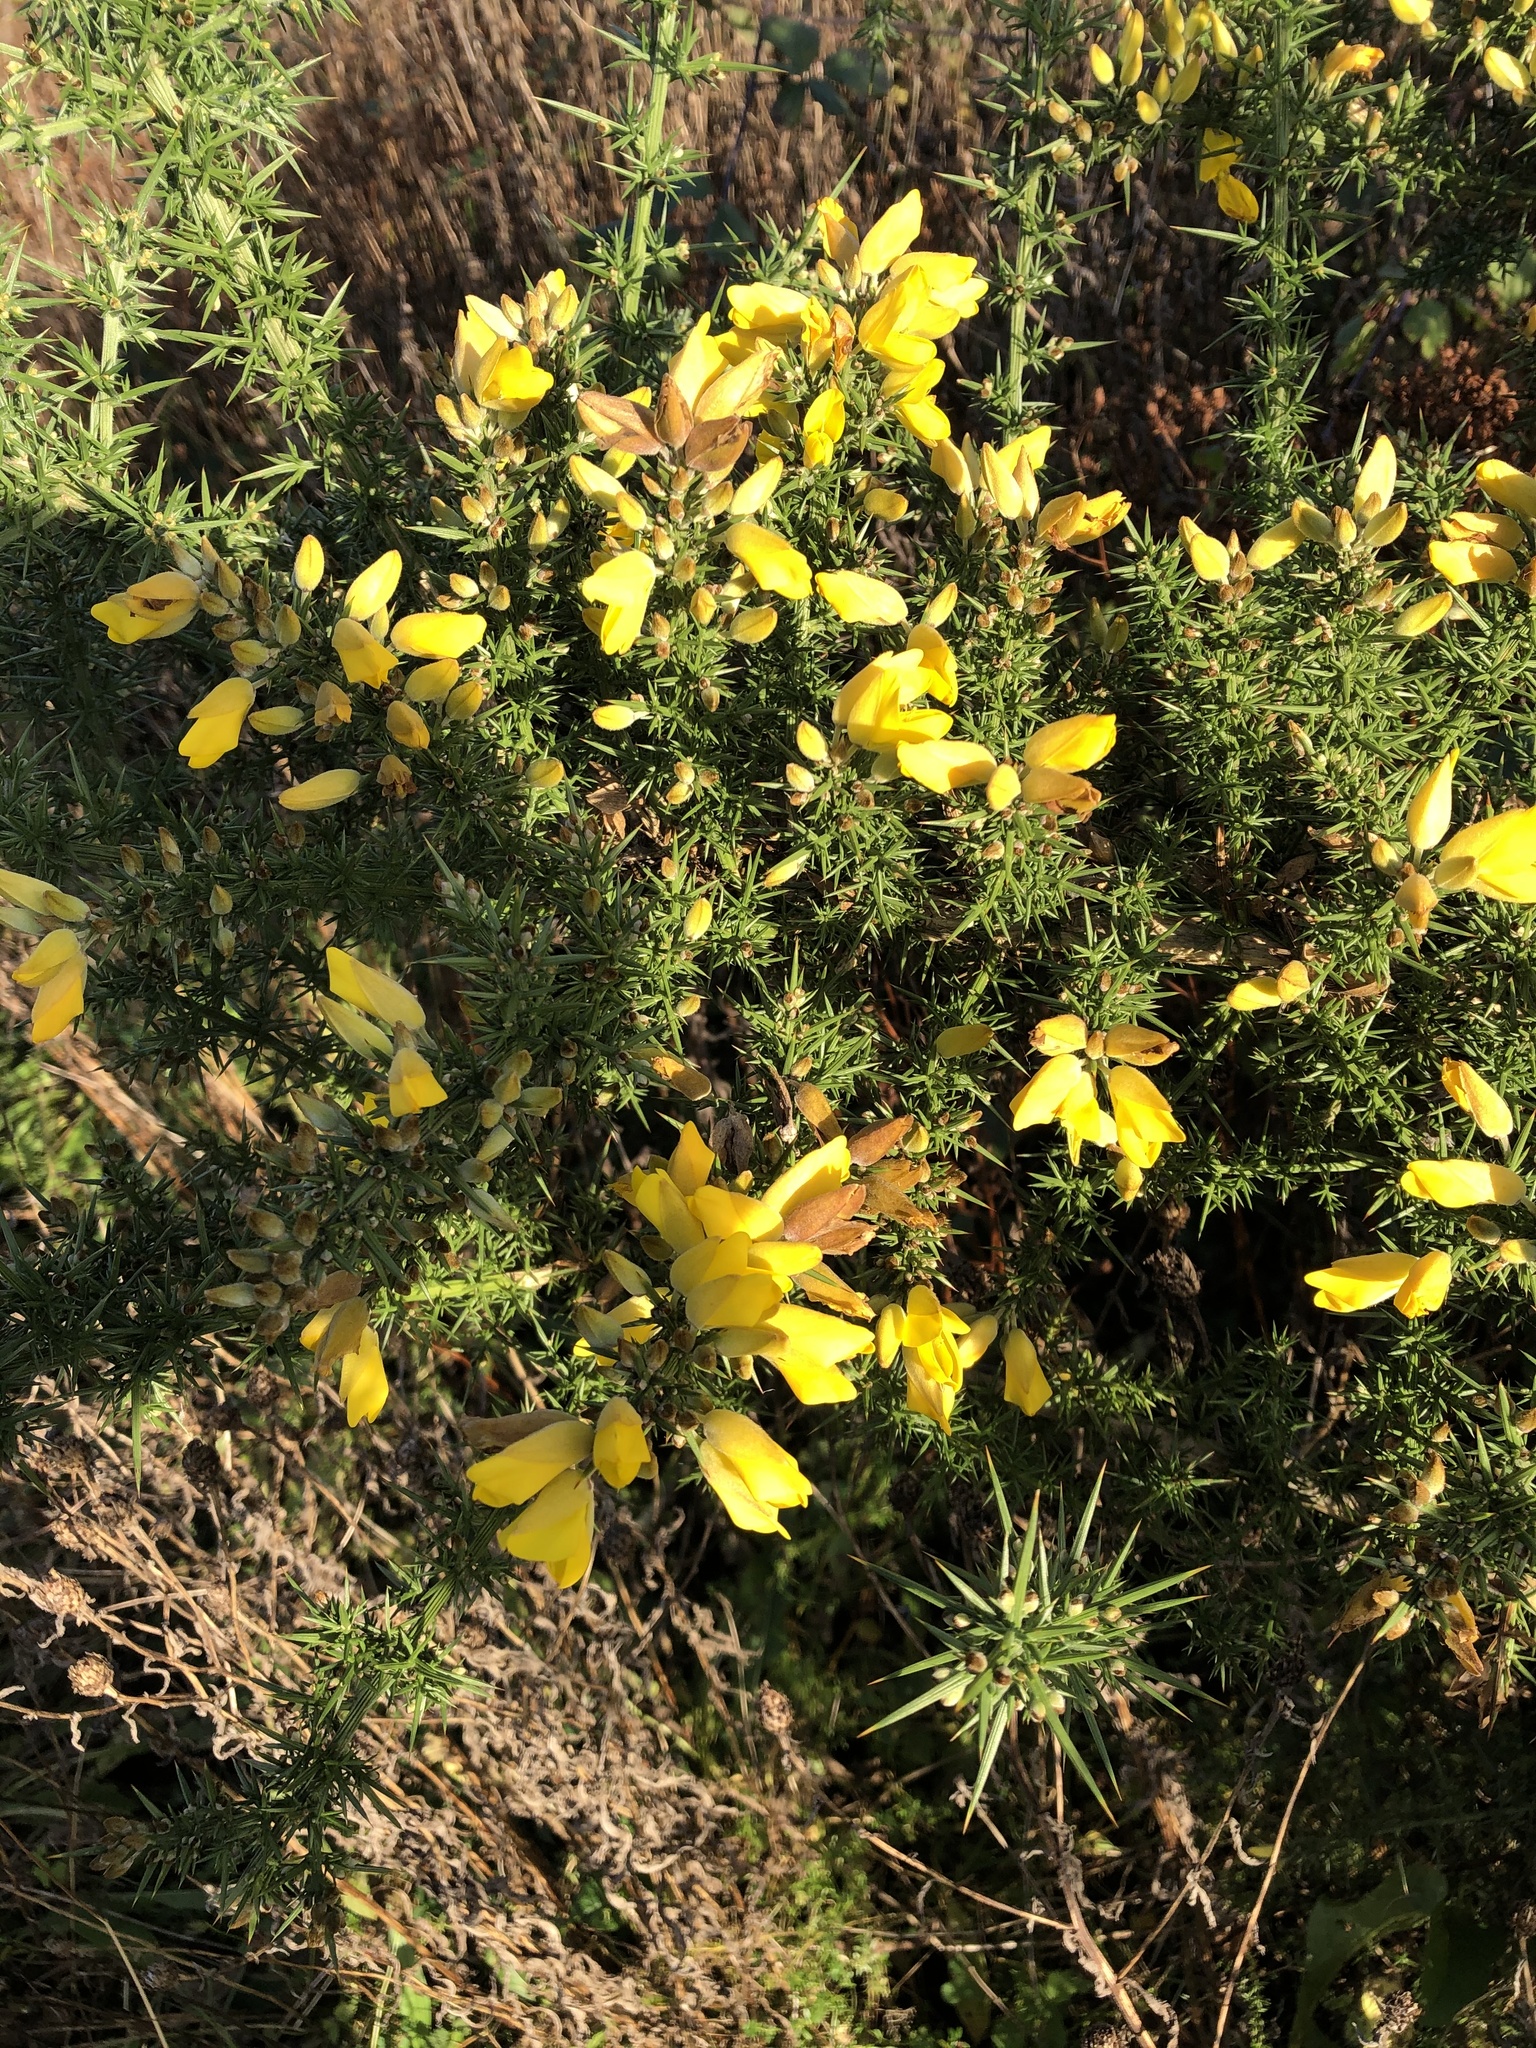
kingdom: Plantae
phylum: Tracheophyta
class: Magnoliopsida
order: Fabales
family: Fabaceae
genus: Ulex
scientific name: Ulex europaeus
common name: Common gorse
